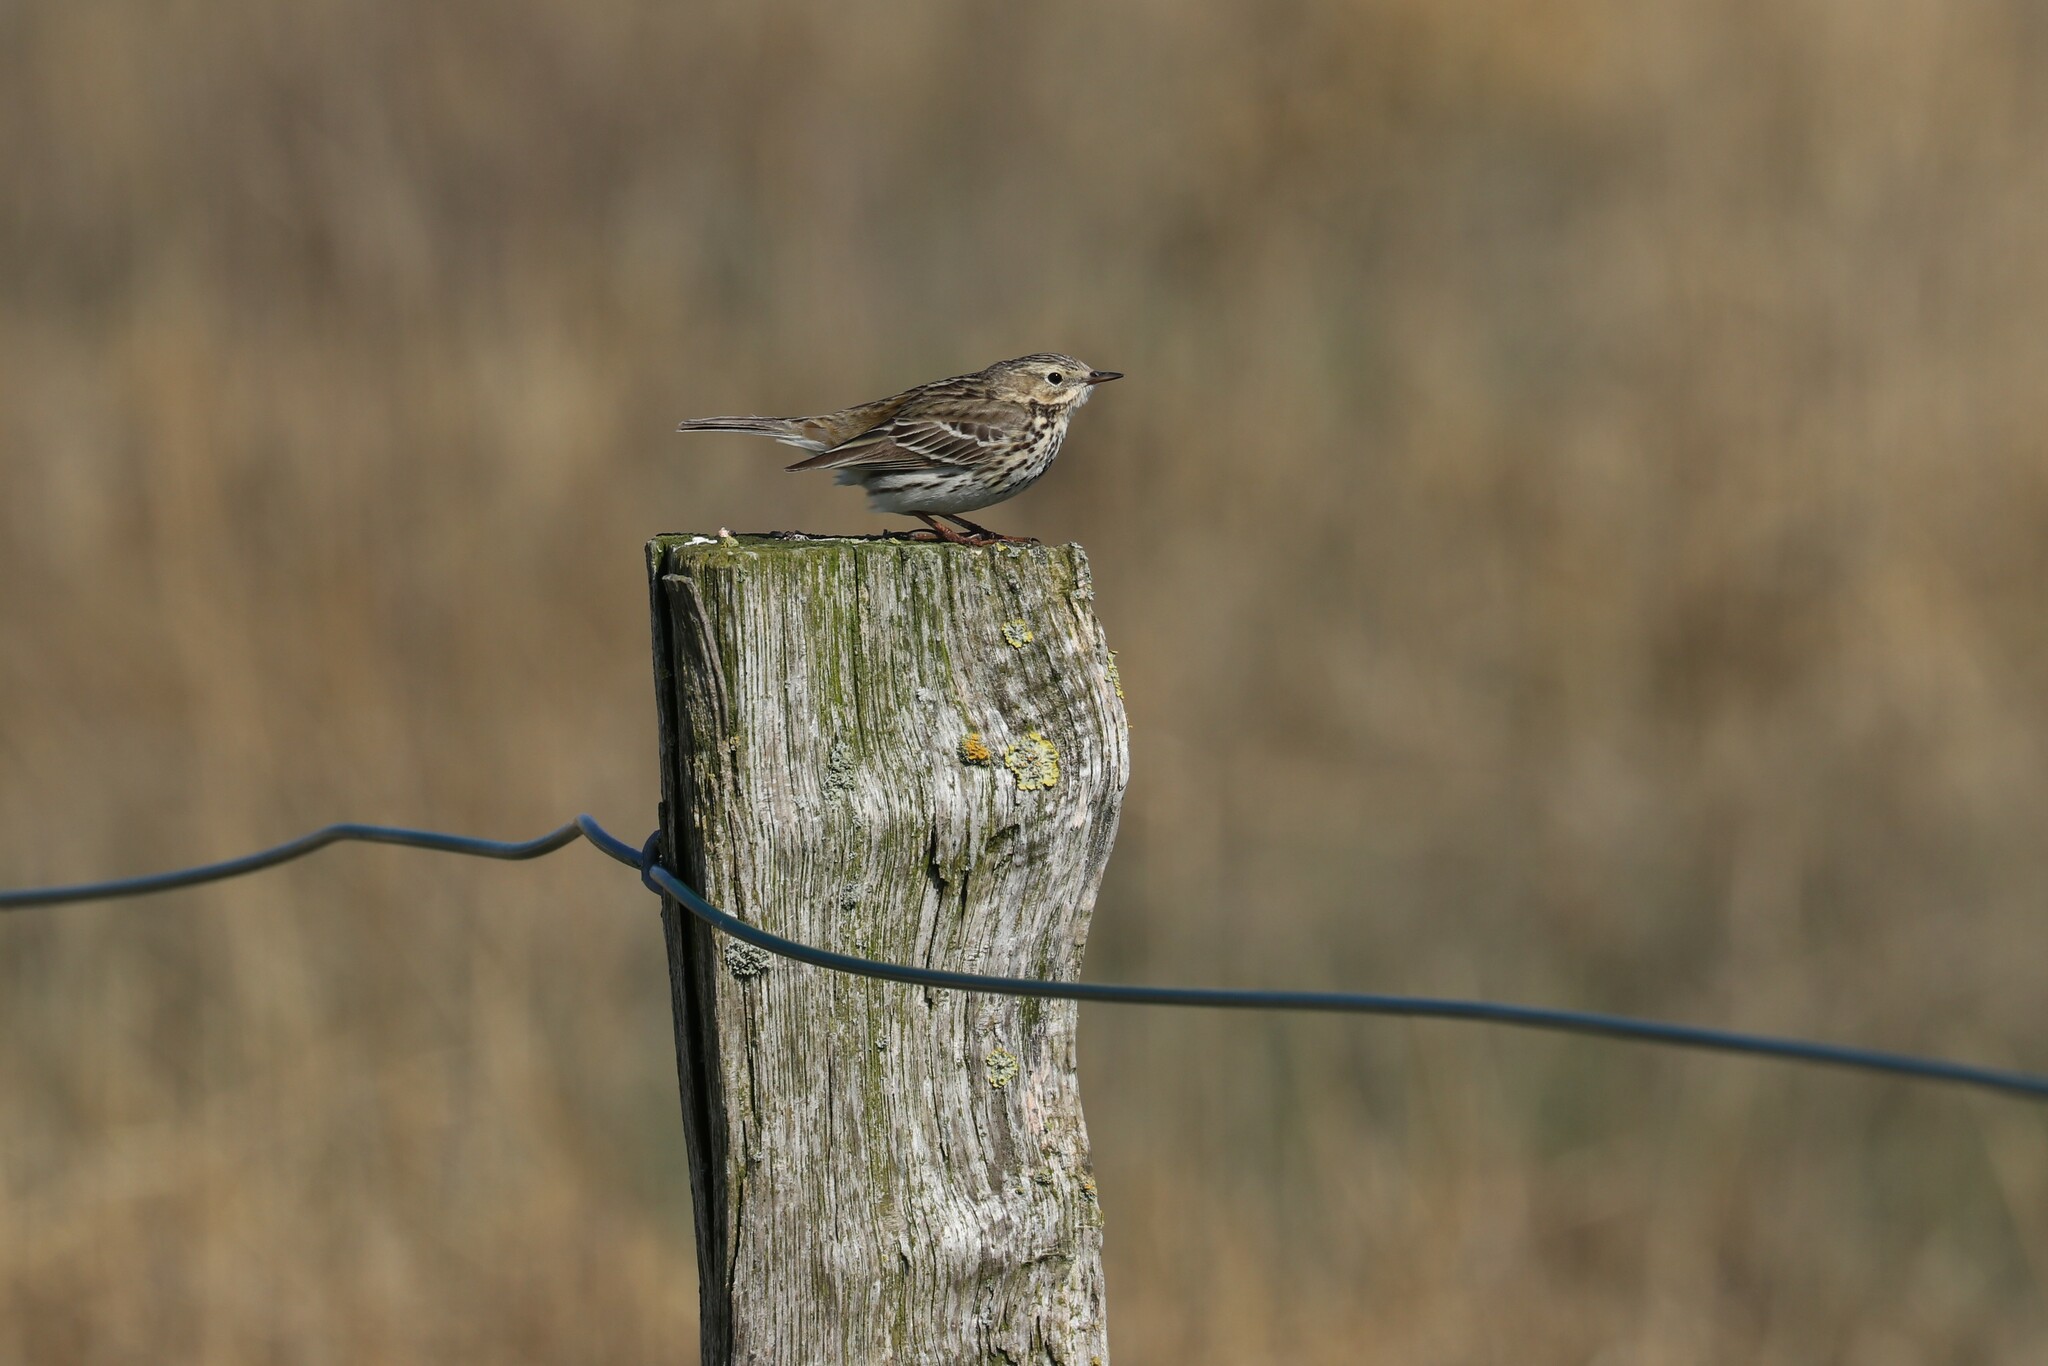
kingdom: Animalia
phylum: Chordata
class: Aves
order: Passeriformes
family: Motacillidae
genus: Anthus
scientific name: Anthus pratensis
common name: Meadow pipit
